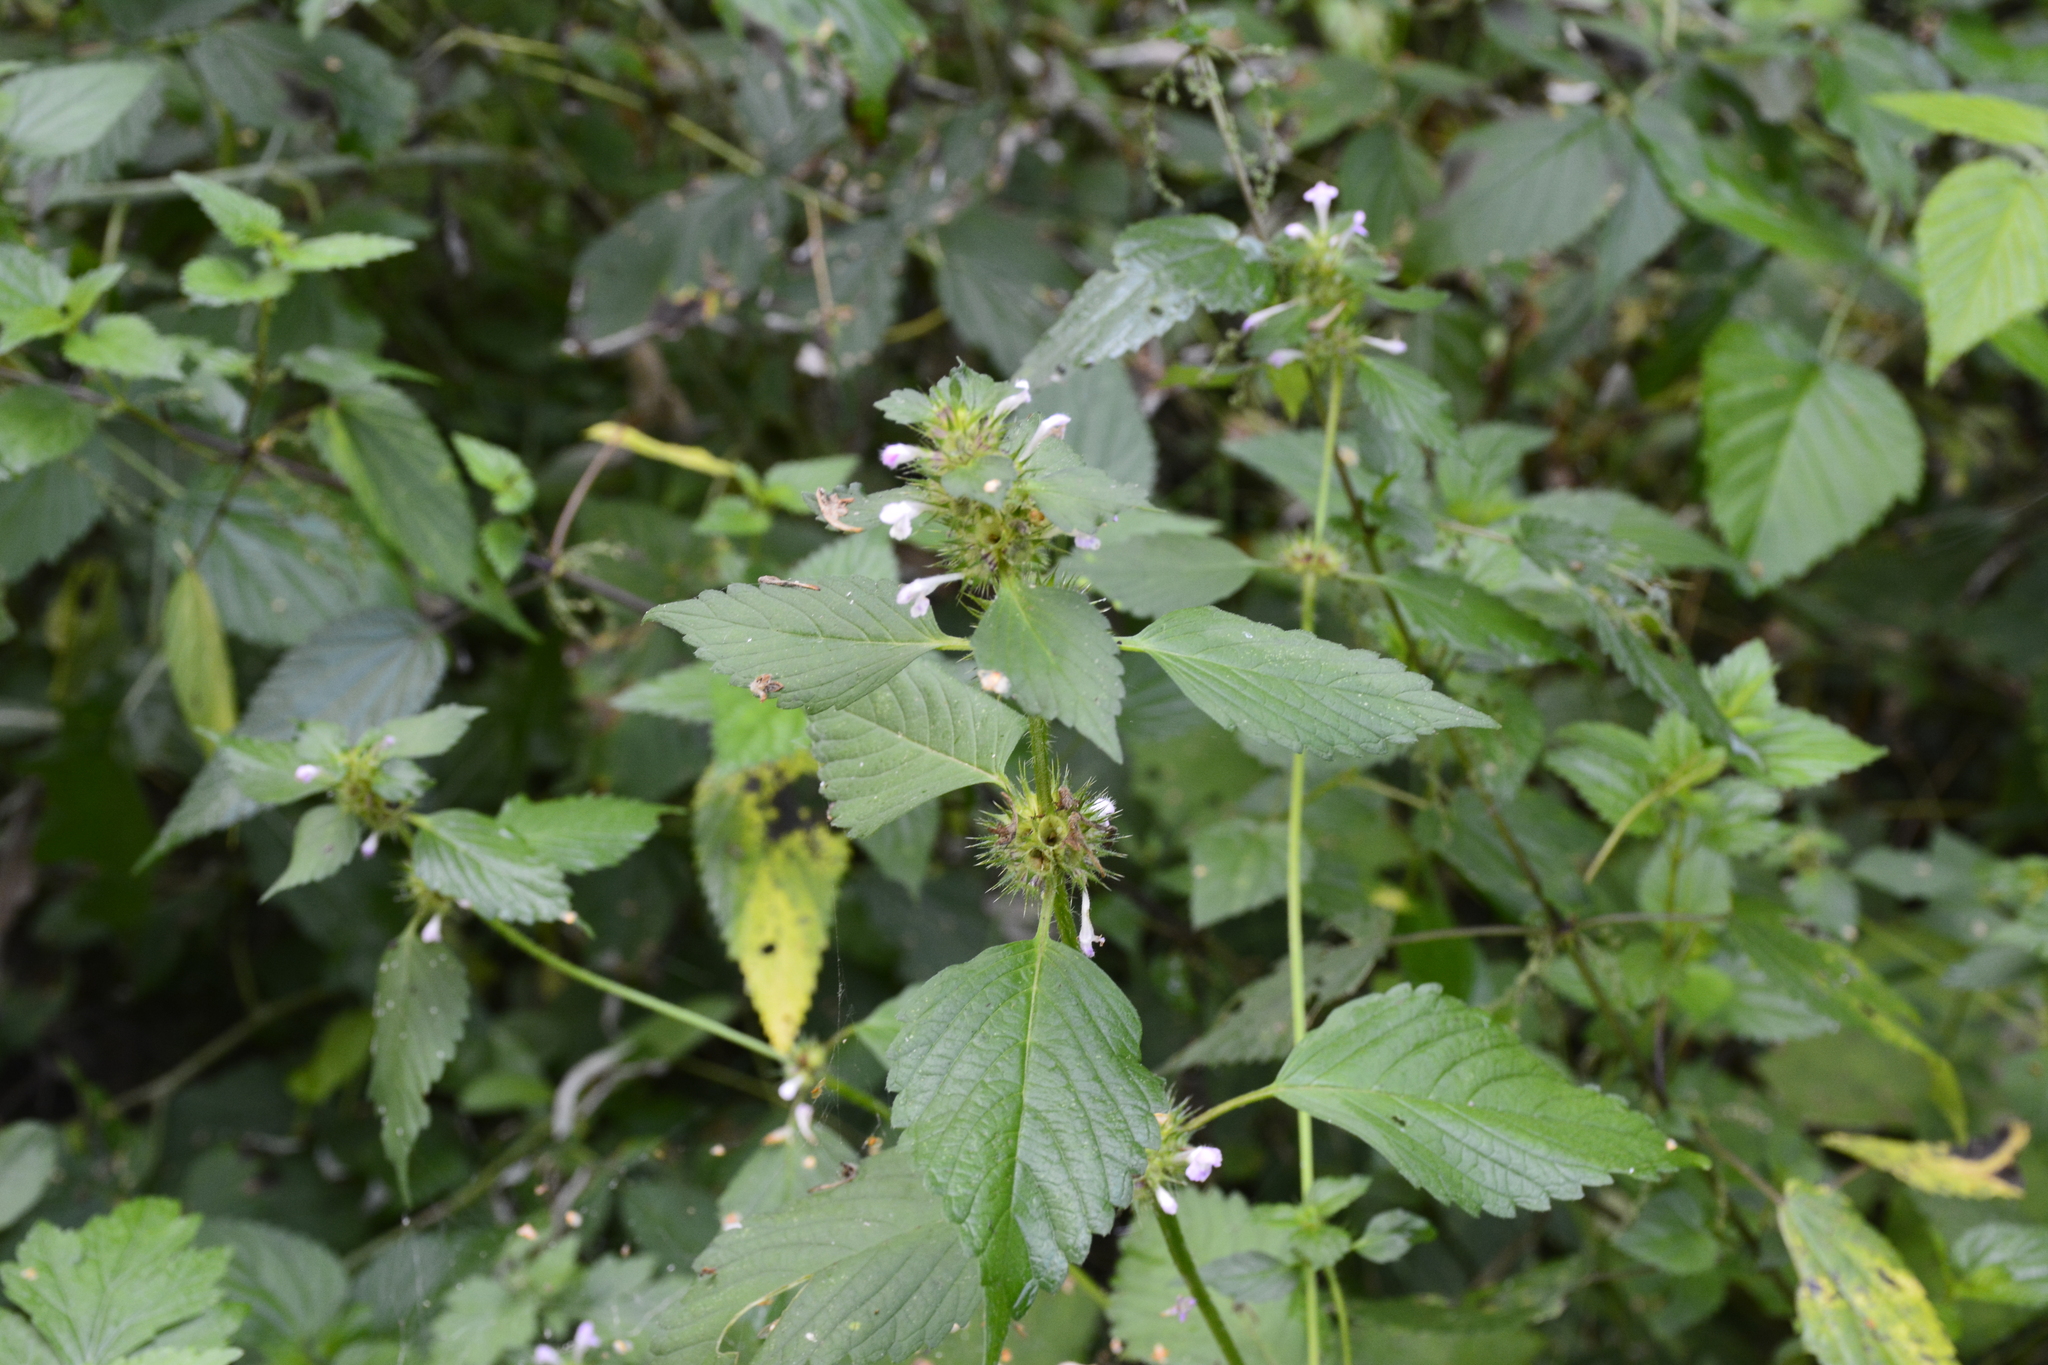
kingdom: Plantae
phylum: Tracheophyta
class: Magnoliopsida
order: Lamiales
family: Lamiaceae
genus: Galeopsis
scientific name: Galeopsis tetrahit
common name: Common hemp-nettle
